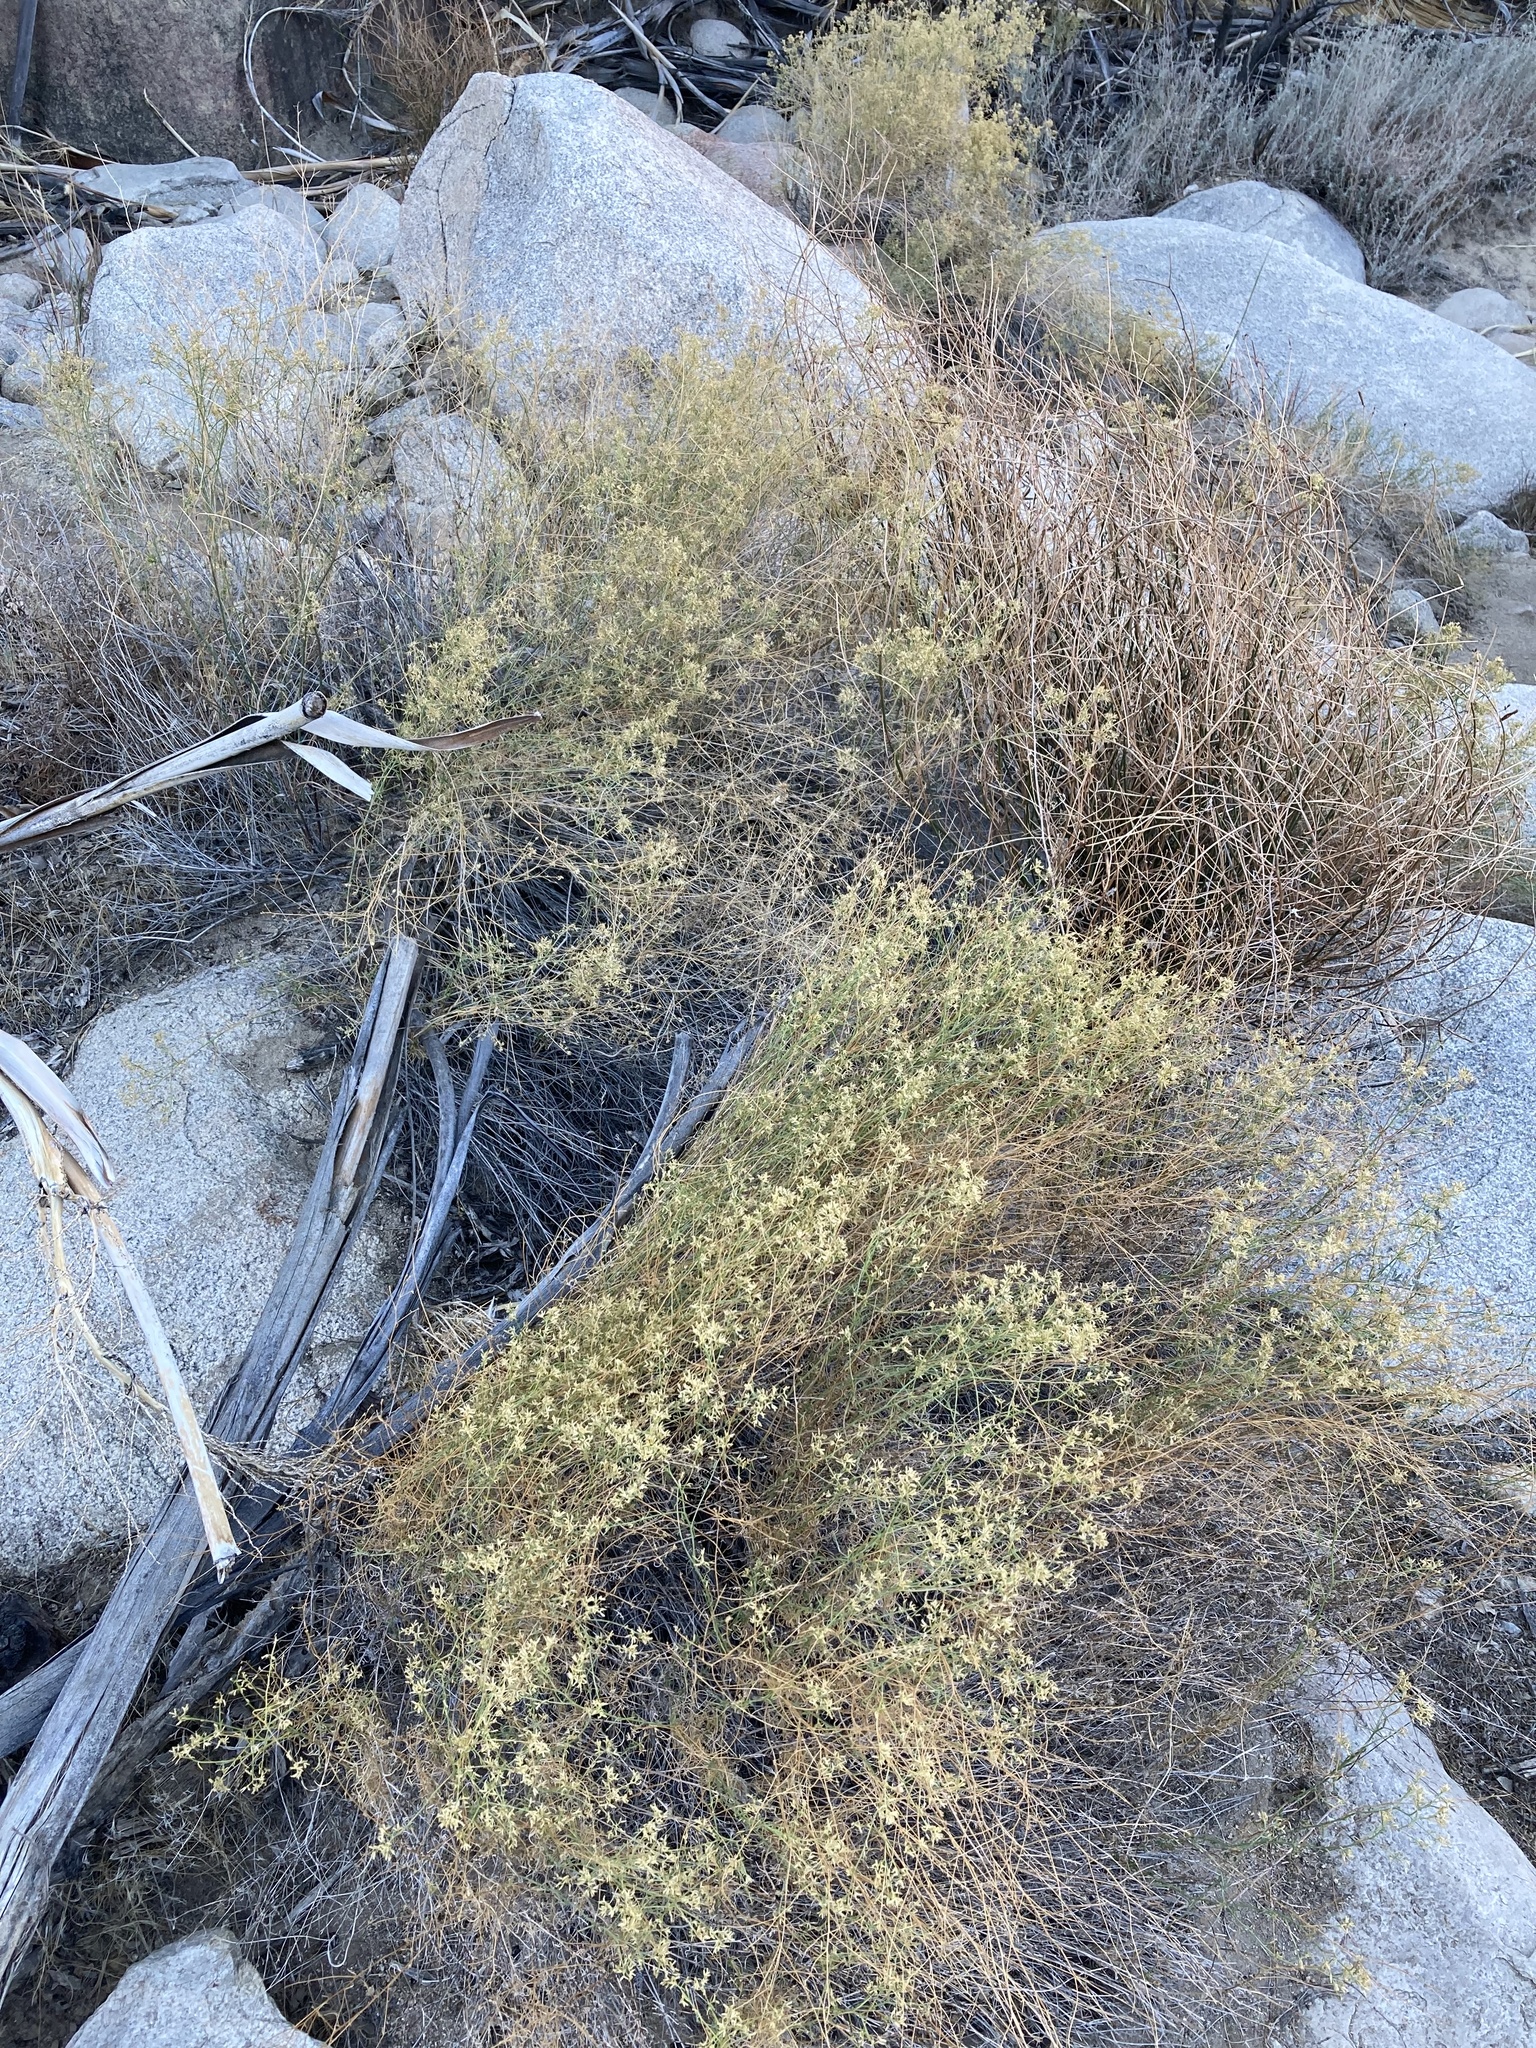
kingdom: Plantae
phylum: Tracheophyta
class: Magnoliopsida
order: Asterales
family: Asteraceae
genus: Gutierrezia
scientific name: Gutierrezia microcephala
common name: Thread snakeweed
